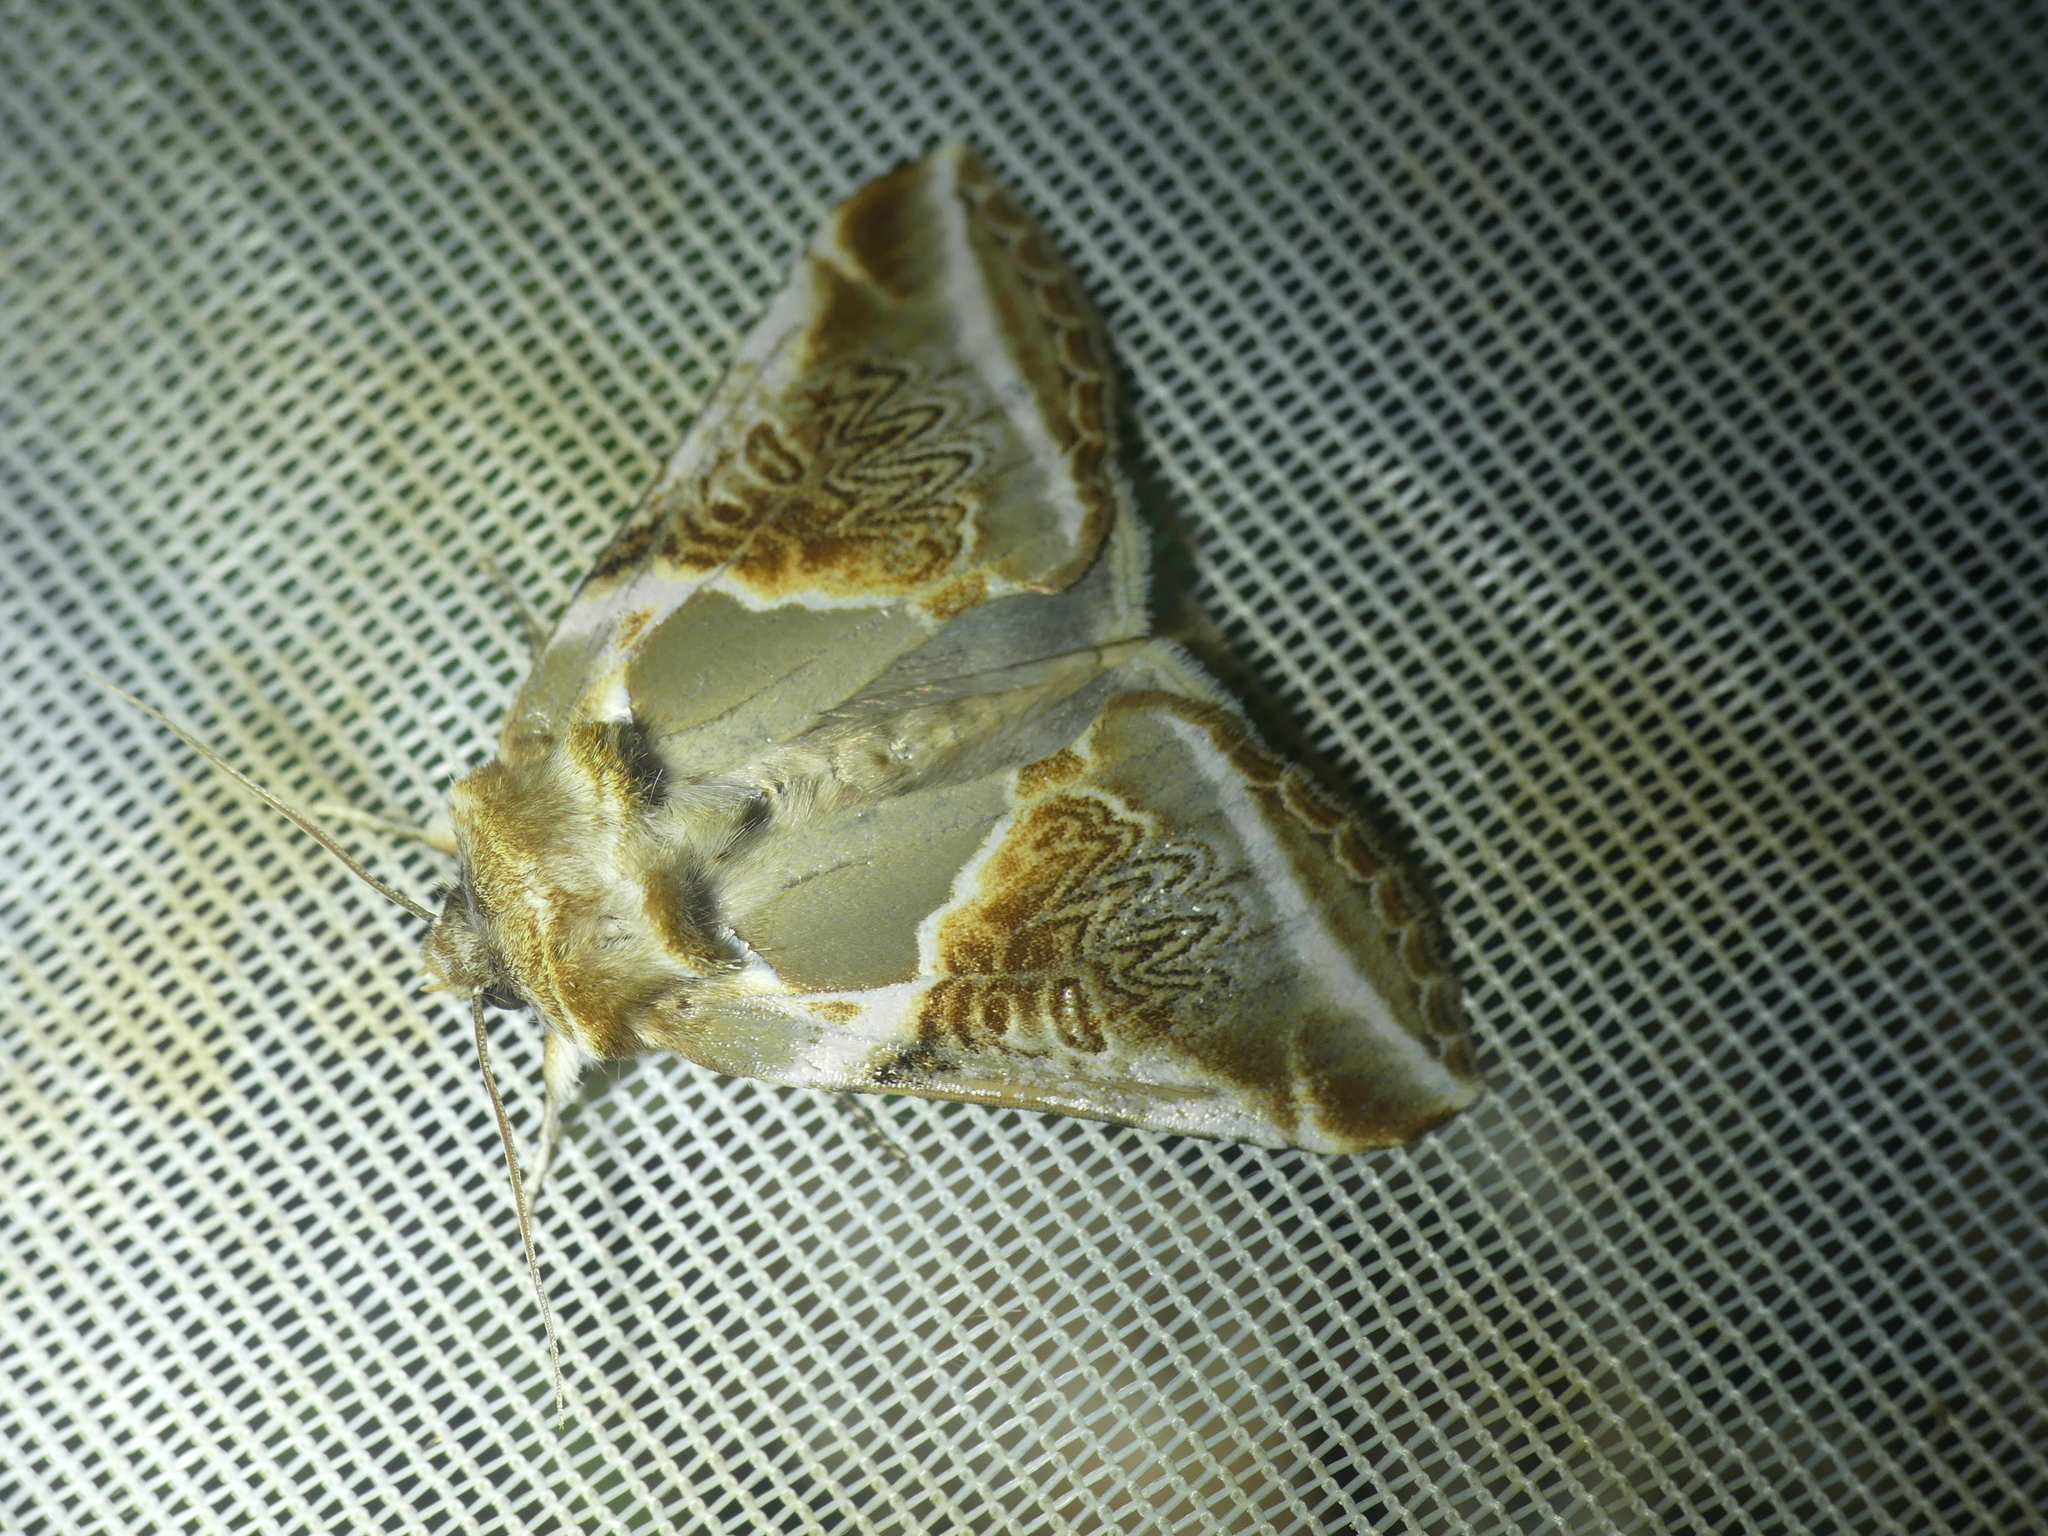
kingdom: Animalia
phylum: Arthropoda
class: Insecta
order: Lepidoptera
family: Drepanidae
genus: Habrosyne
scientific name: Habrosyne pyritoides
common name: Buff arches
